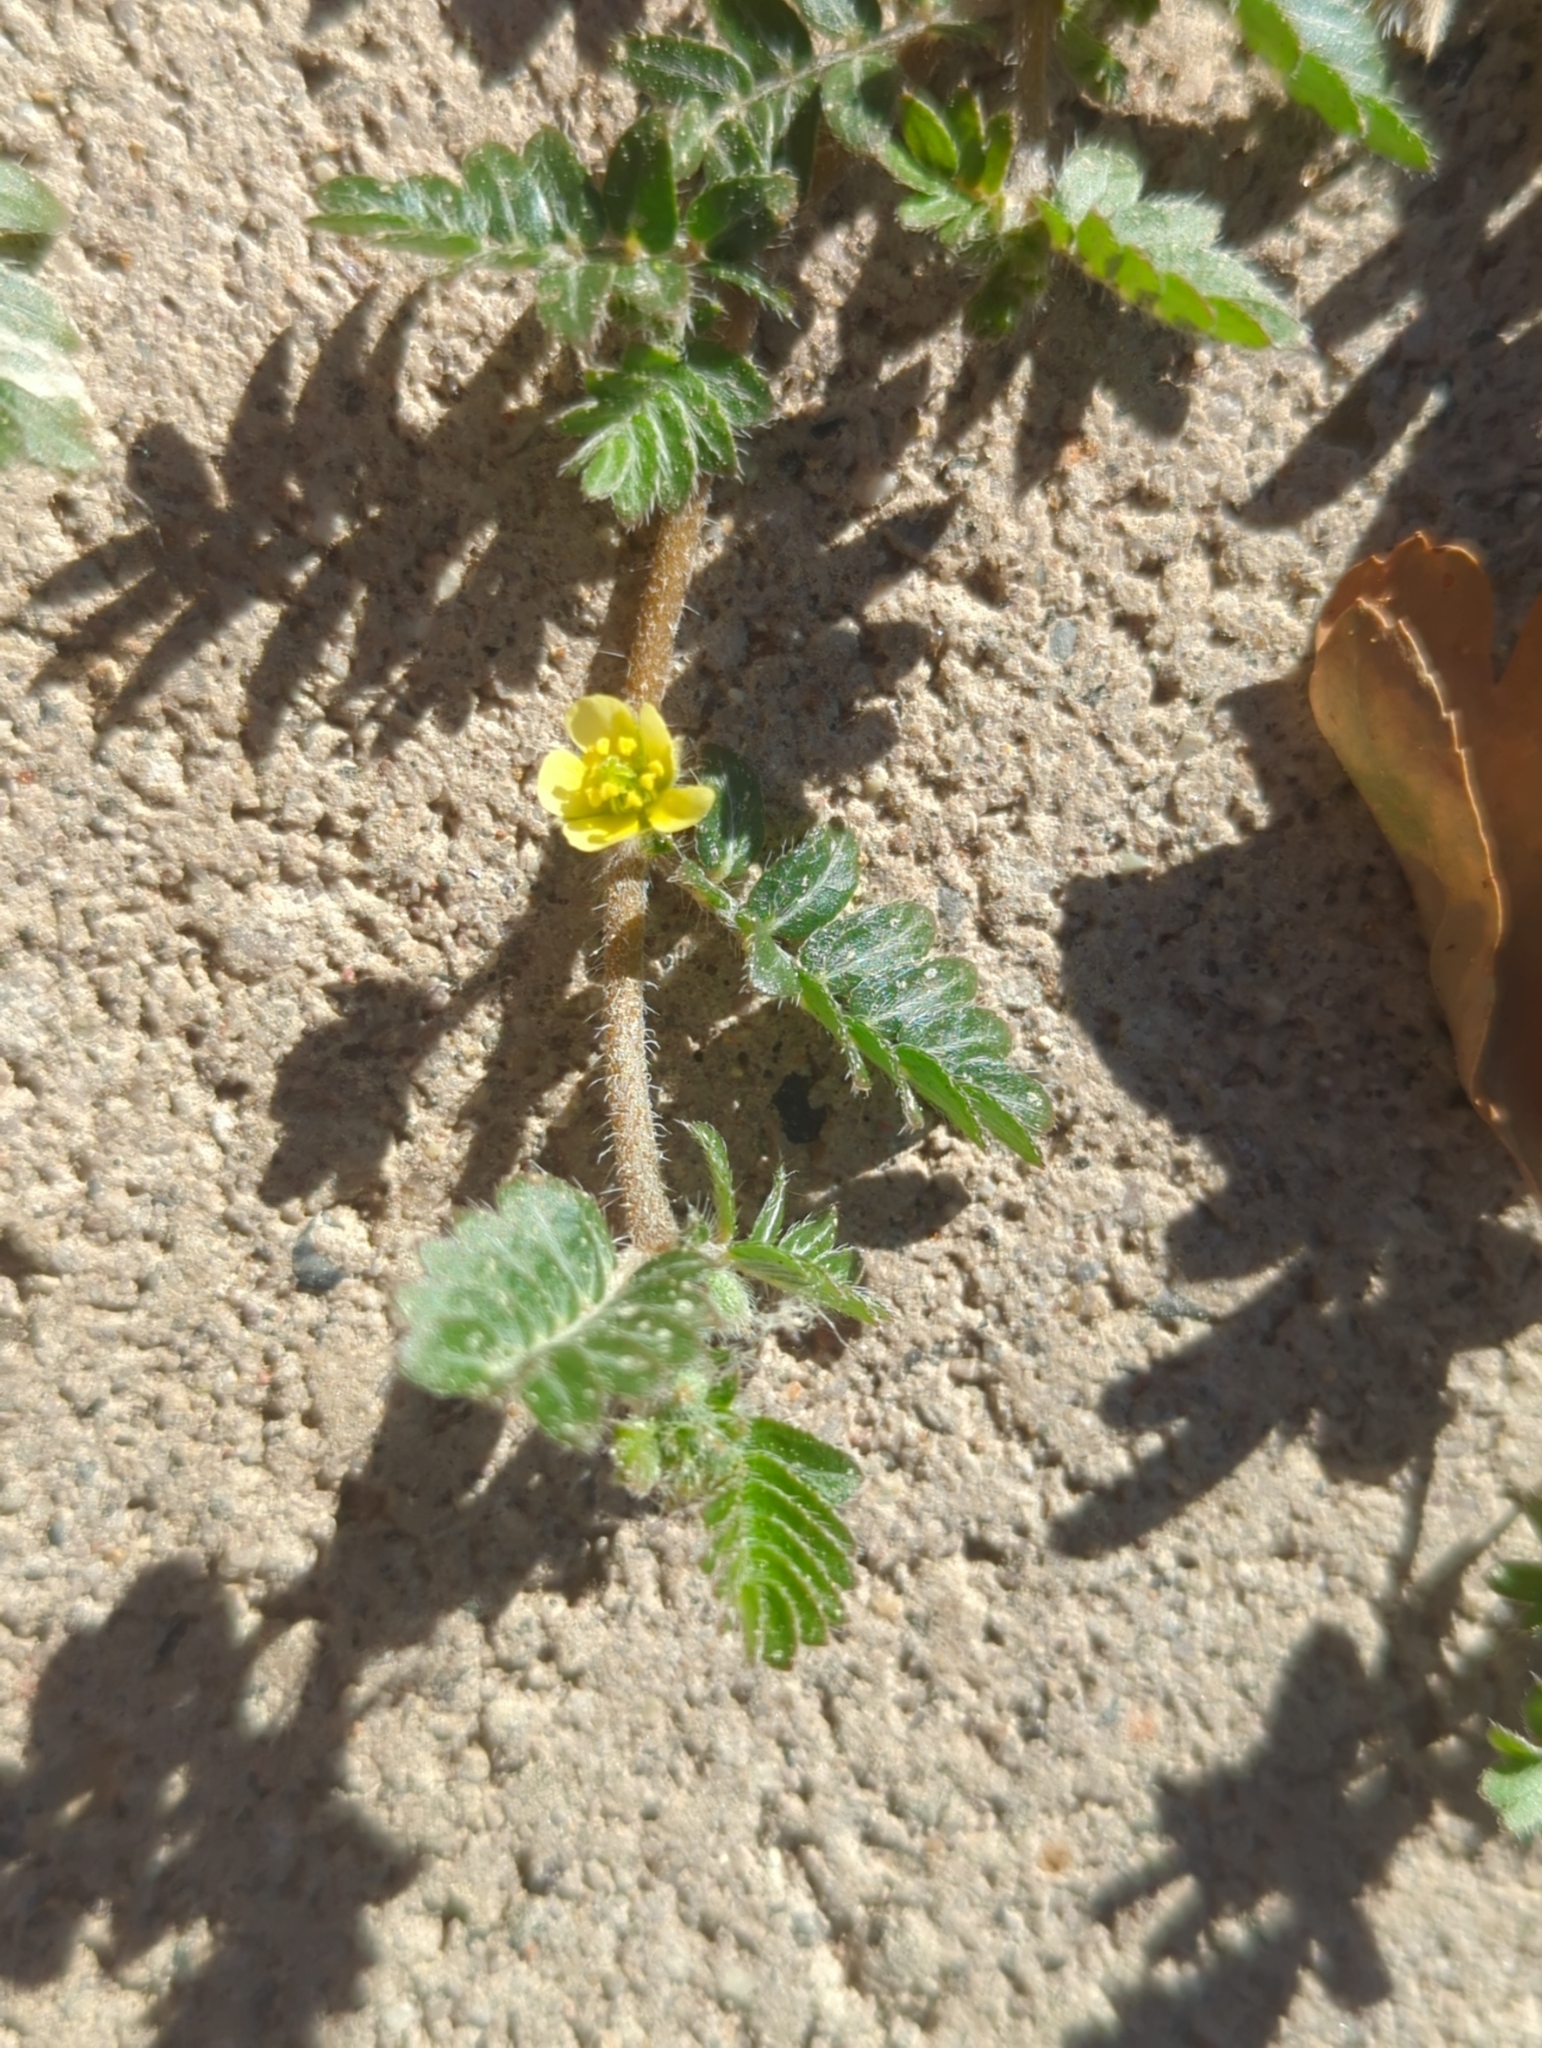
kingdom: Plantae
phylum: Tracheophyta
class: Magnoliopsida
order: Zygophyllales
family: Zygophyllaceae
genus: Tribulus
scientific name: Tribulus terrestris
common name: Puncturevine
